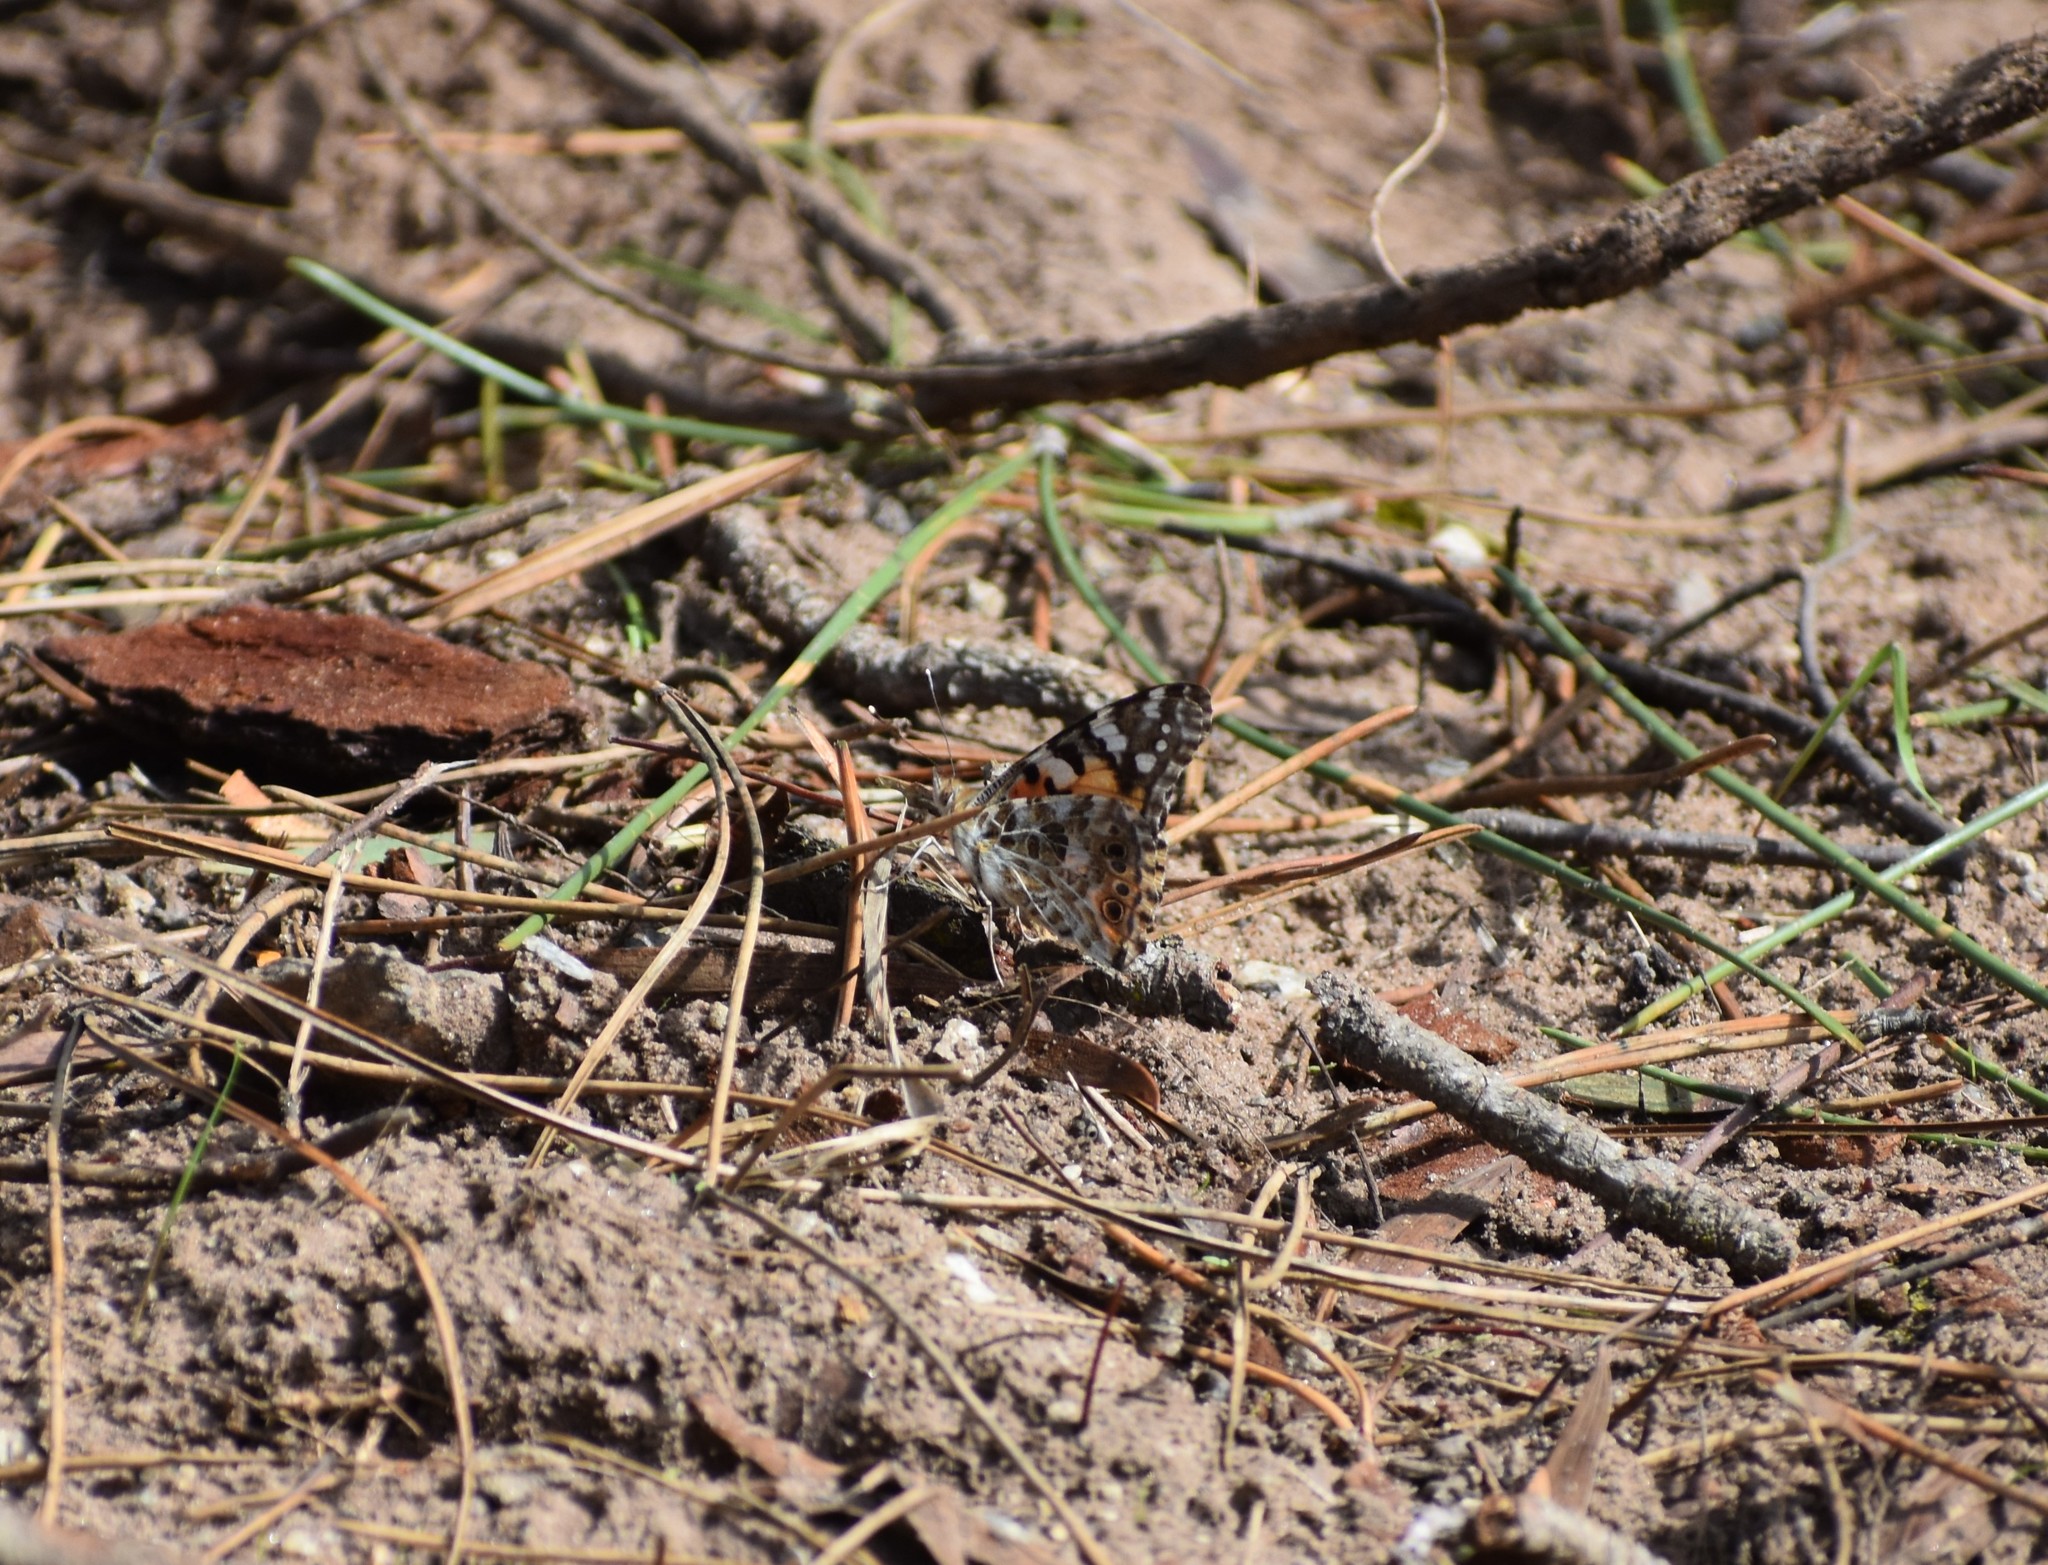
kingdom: Animalia
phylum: Arthropoda
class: Insecta
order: Lepidoptera
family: Nymphalidae
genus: Vanessa
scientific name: Vanessa cardui
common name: Painted lady
